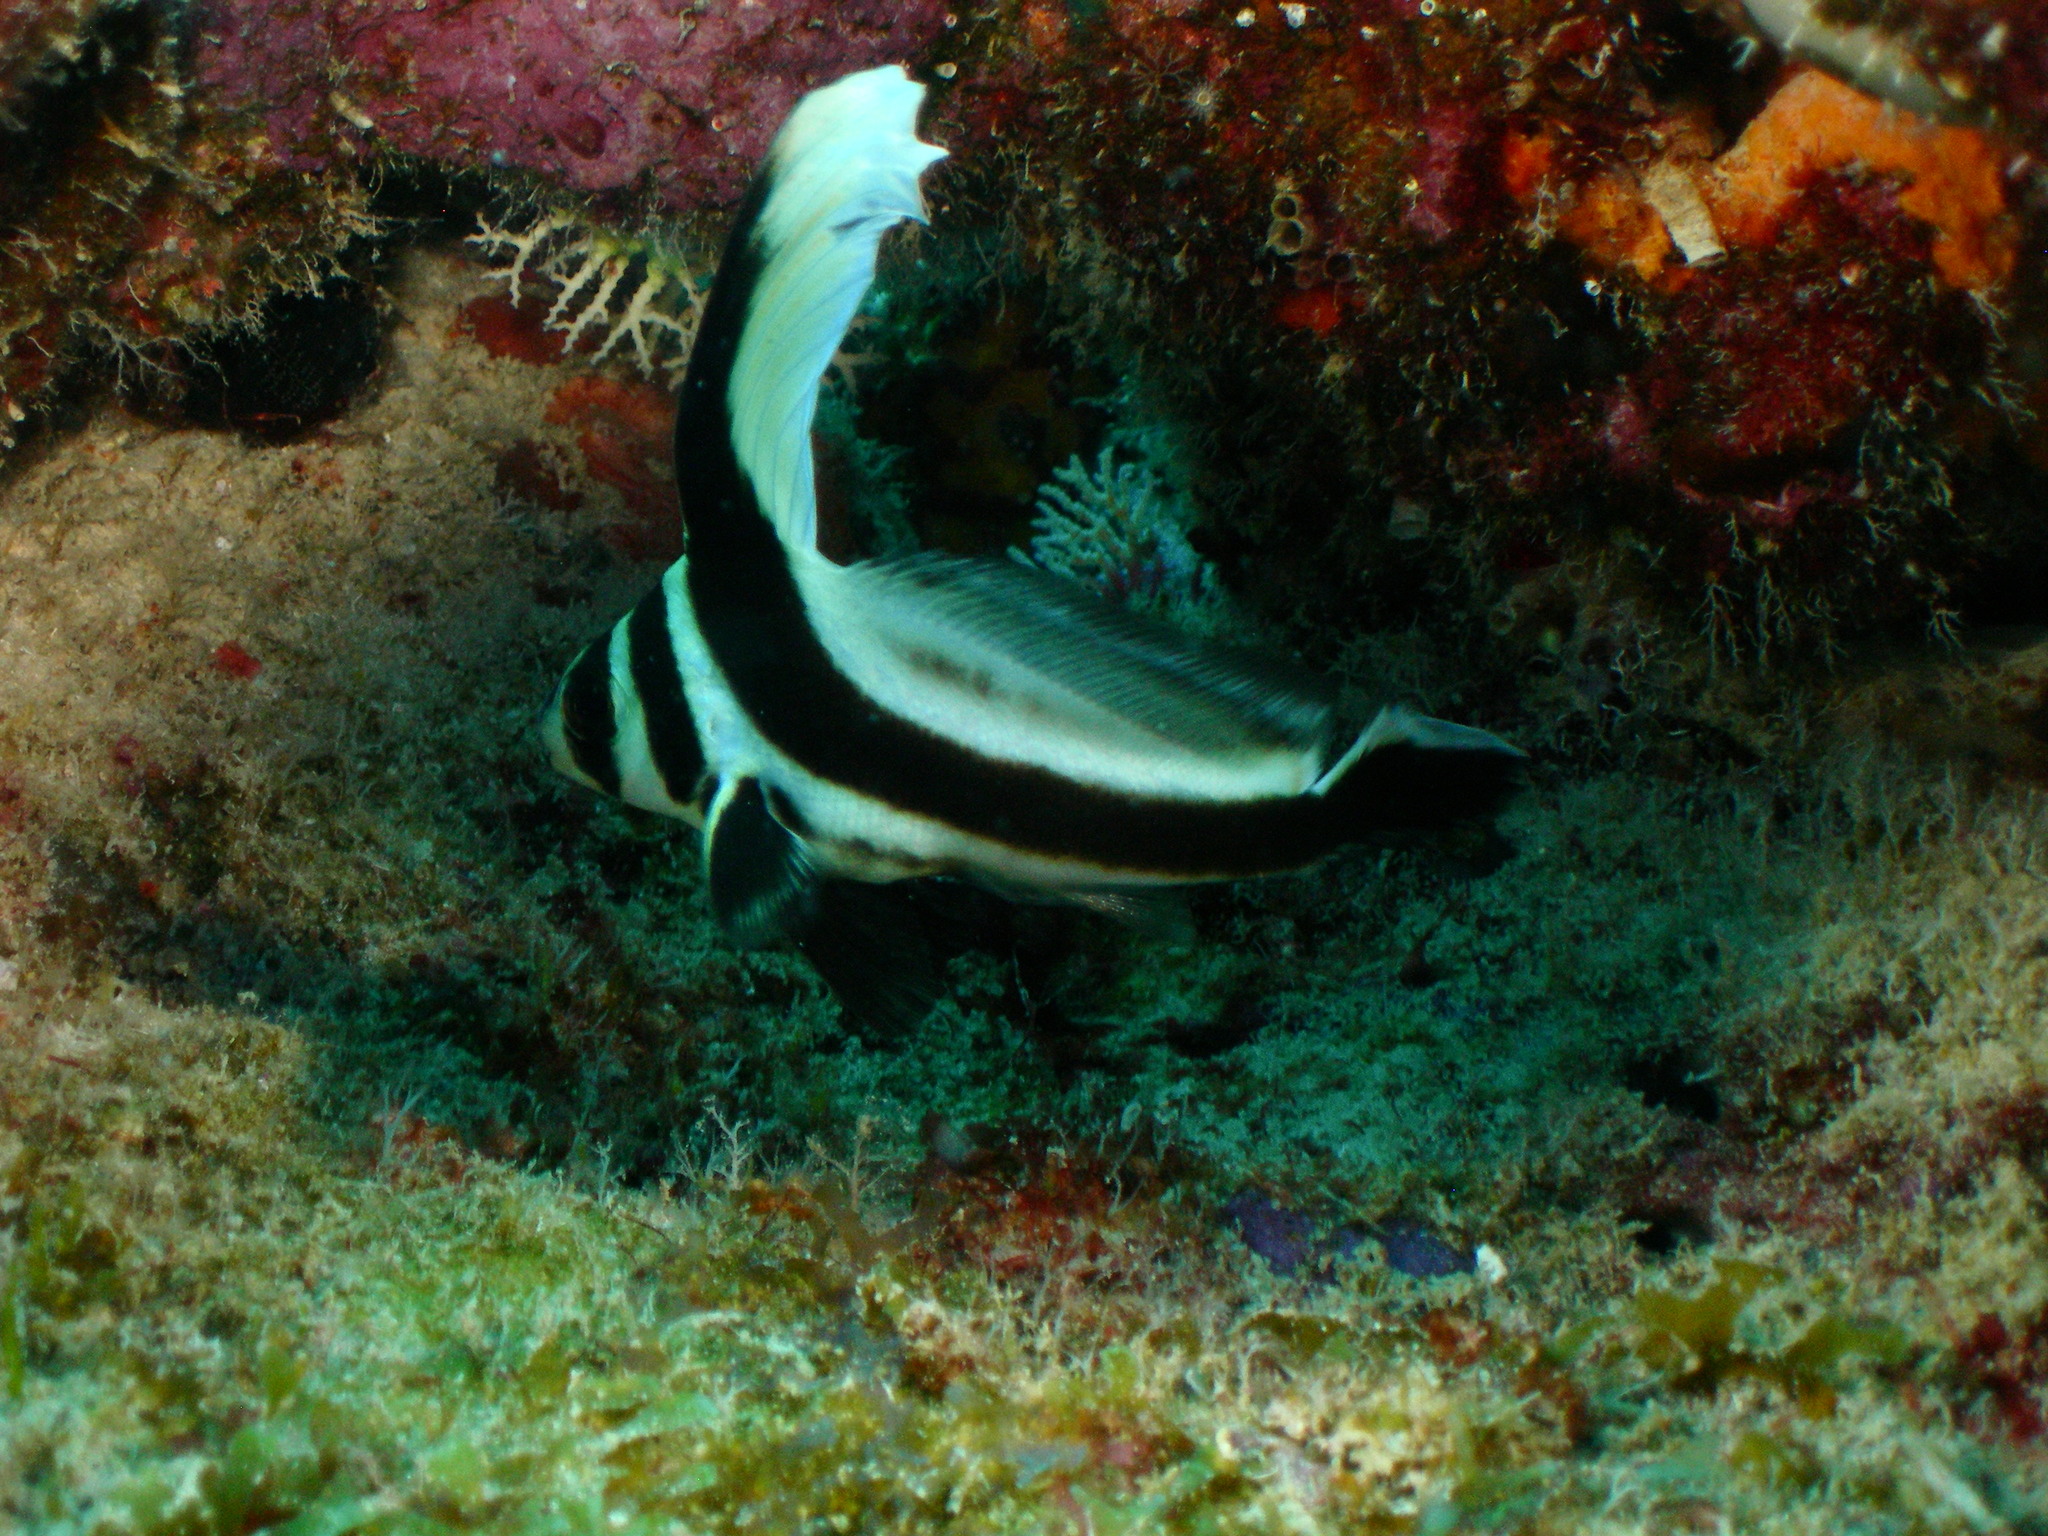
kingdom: Animalia
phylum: Chordata
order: Perciformes
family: Sciaenidae
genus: Equetus
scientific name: Equetus punctatus
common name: Spotted drum
